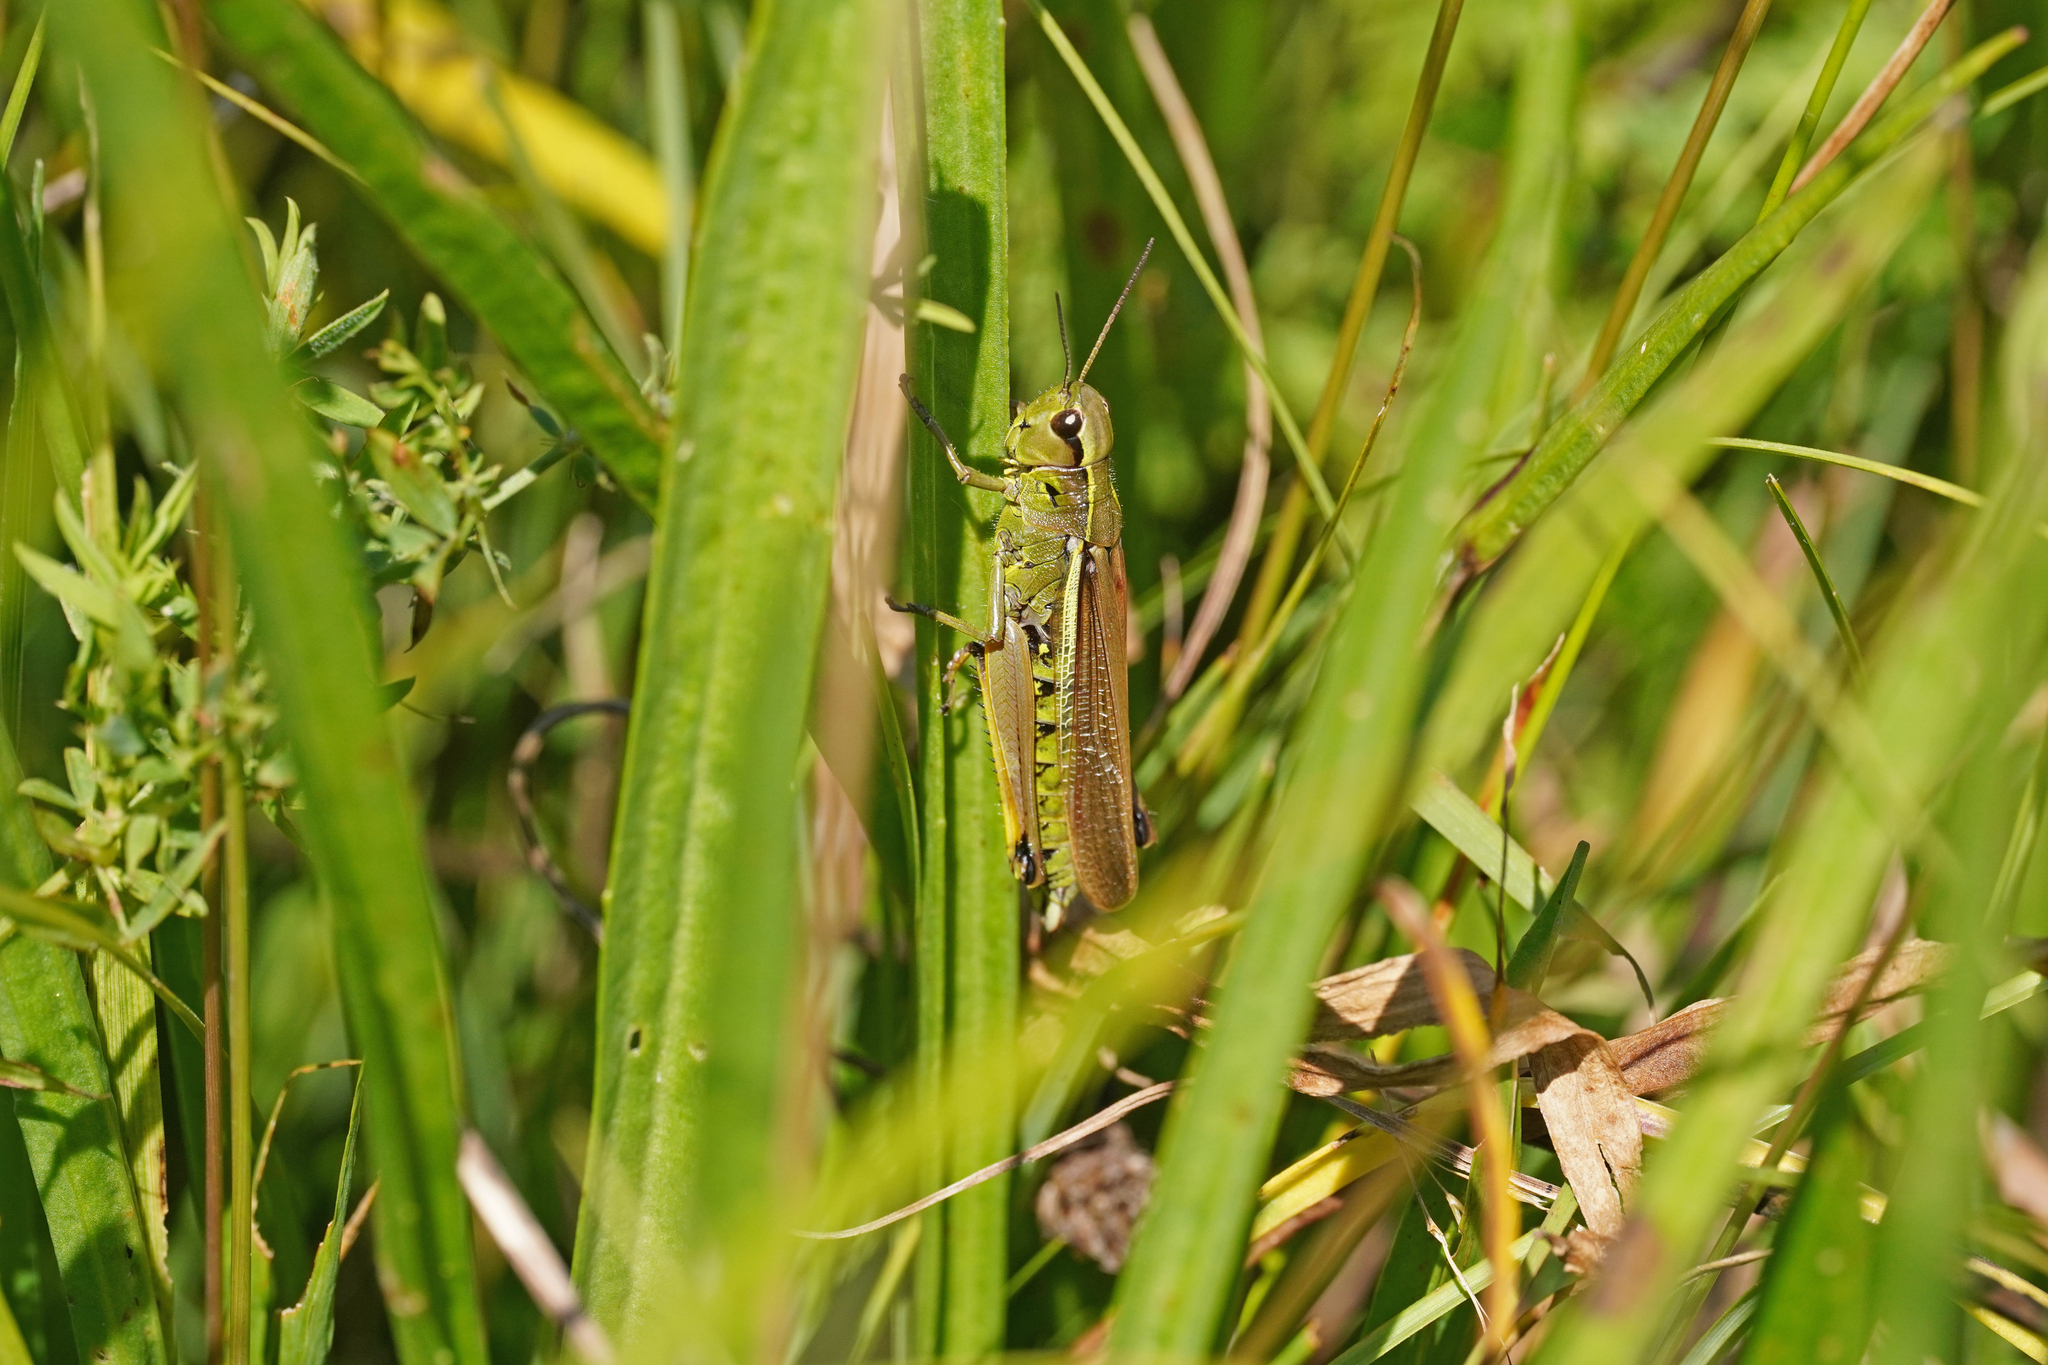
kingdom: Animalia
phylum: Arthropoda
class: Insecta
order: Orthoptera
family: Acrididae
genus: Stethophyma
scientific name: Stethophyma grossum
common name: Large marsh grasshopper
